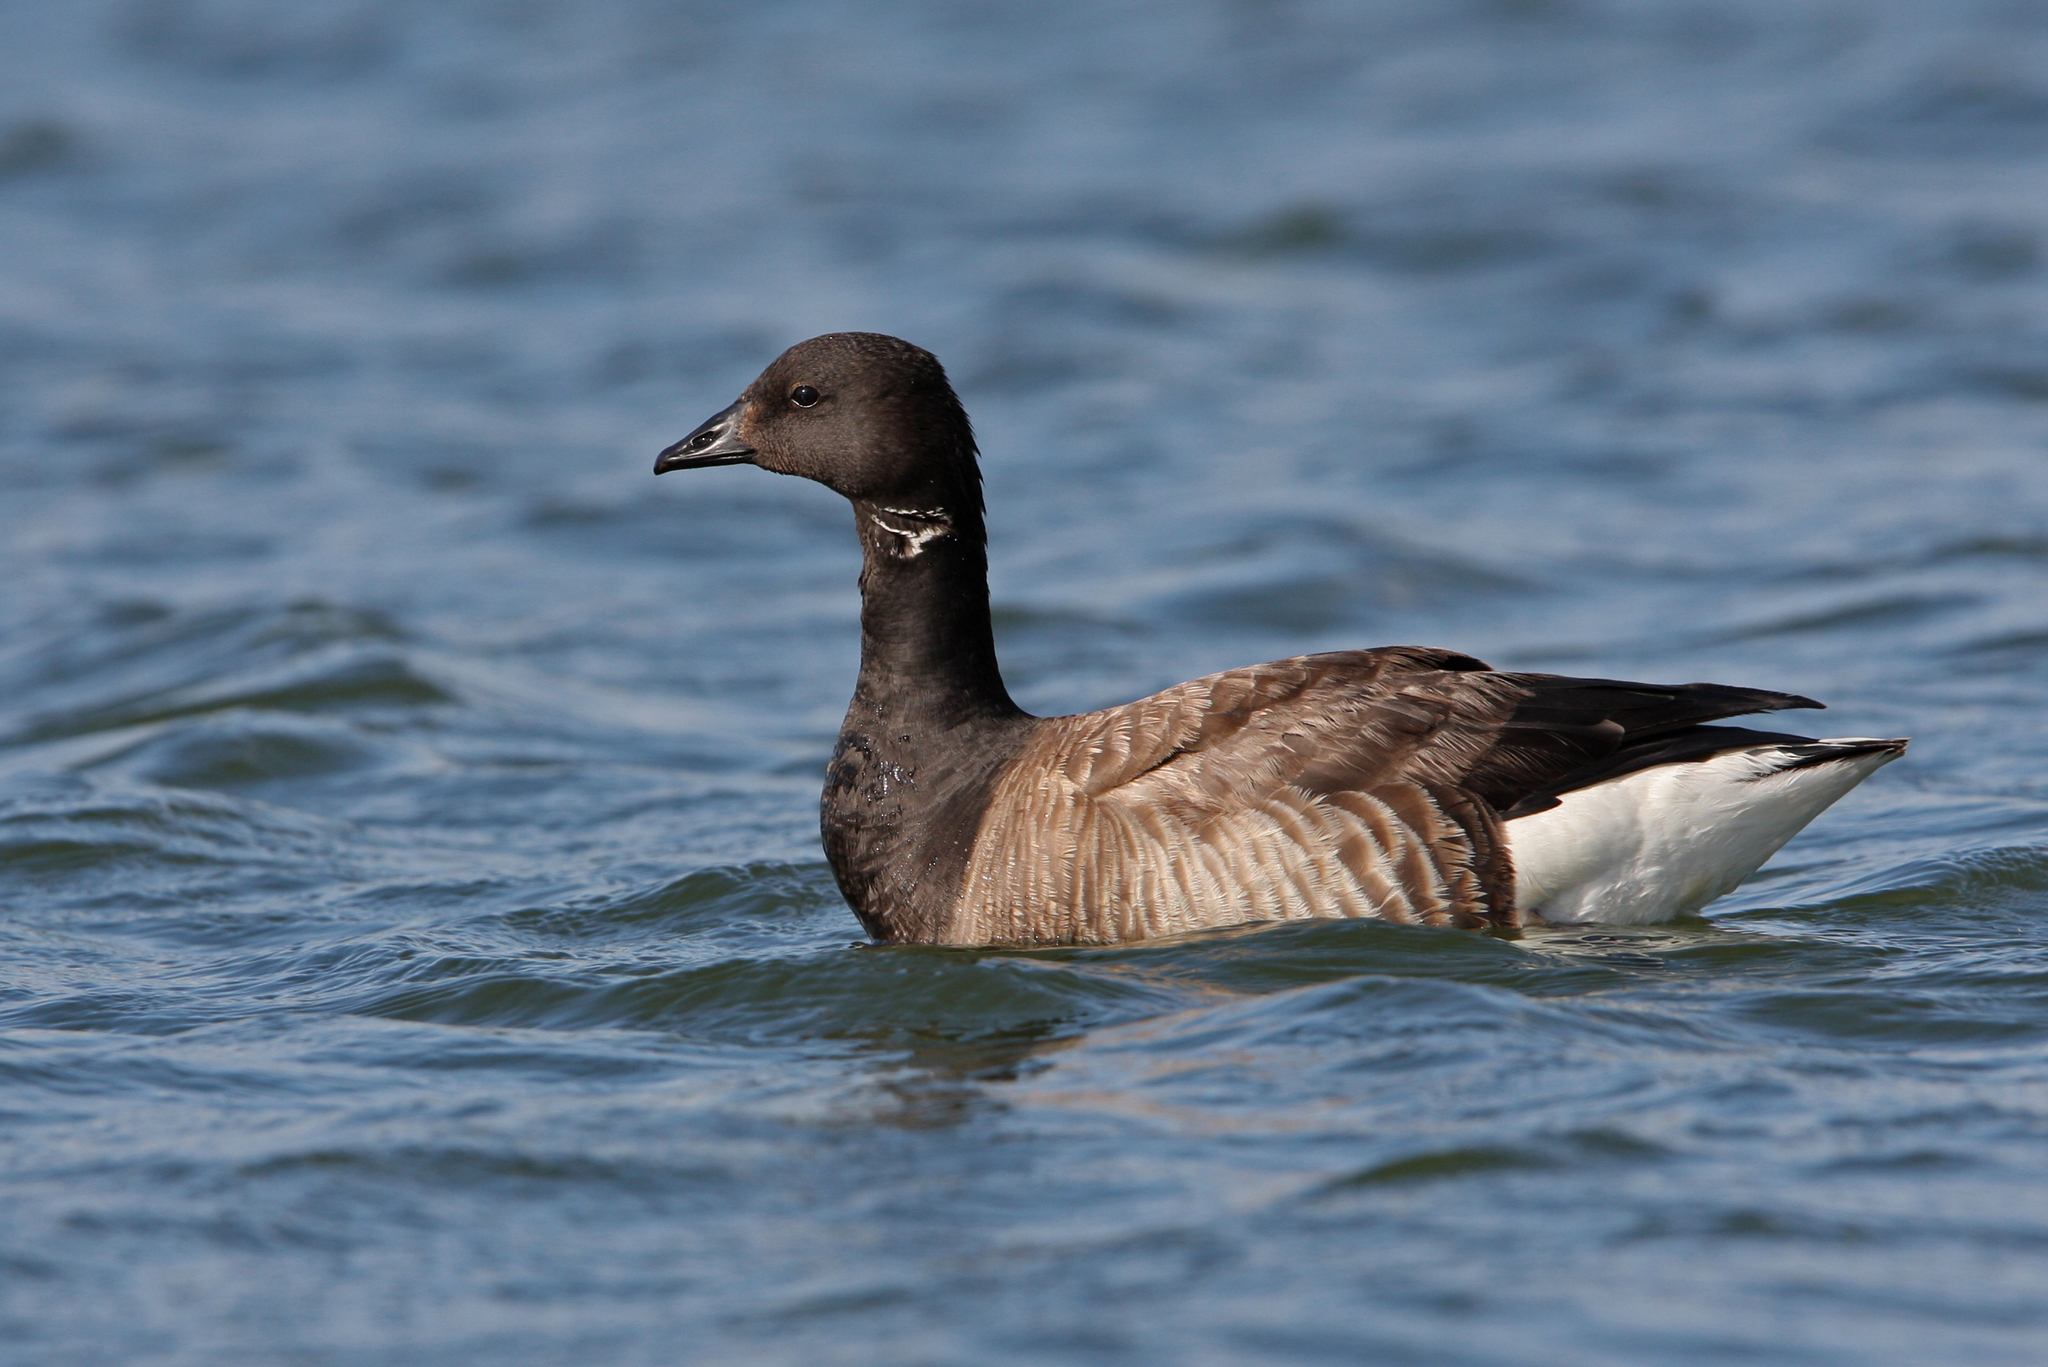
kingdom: Animalia
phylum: Chordata
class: Aves
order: Anseriformes
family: Anatidae
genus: Branta
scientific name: Branta bernicla
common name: Brant goose
